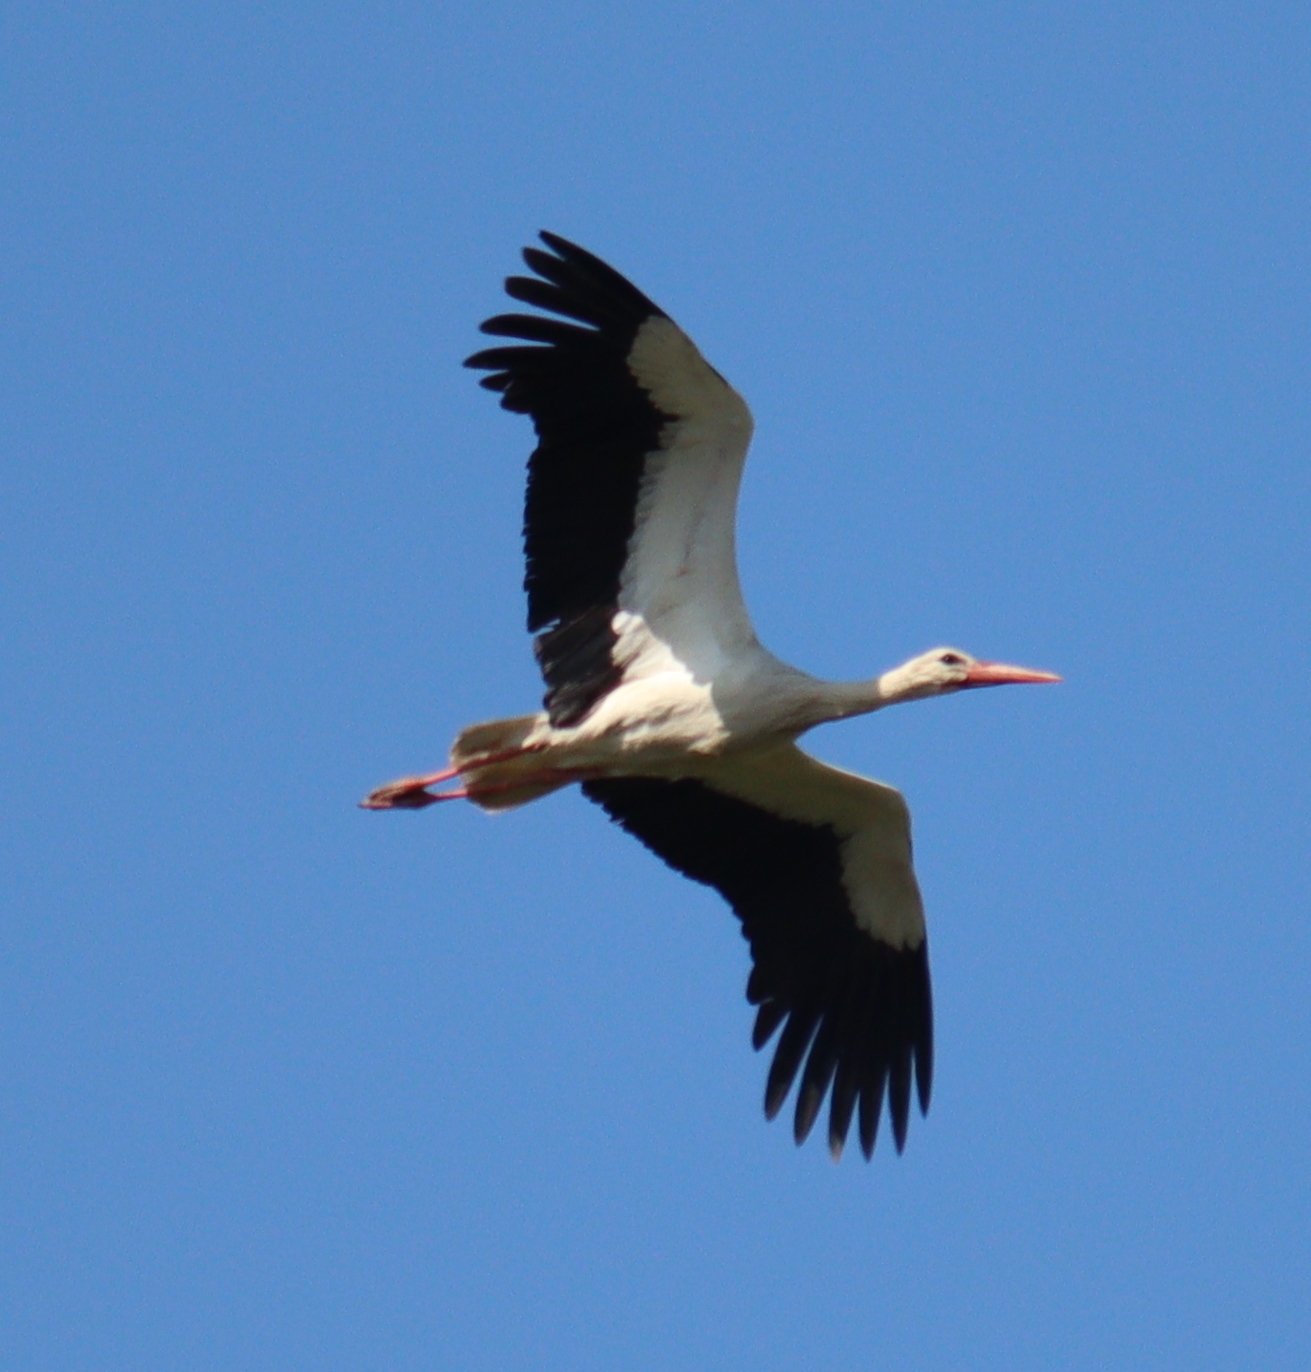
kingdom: Animalia
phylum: Chordata
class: Aves
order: Ciconiiformes
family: Ciconiidae
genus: Ciconia
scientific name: Ciconia ciconia
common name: White stork
